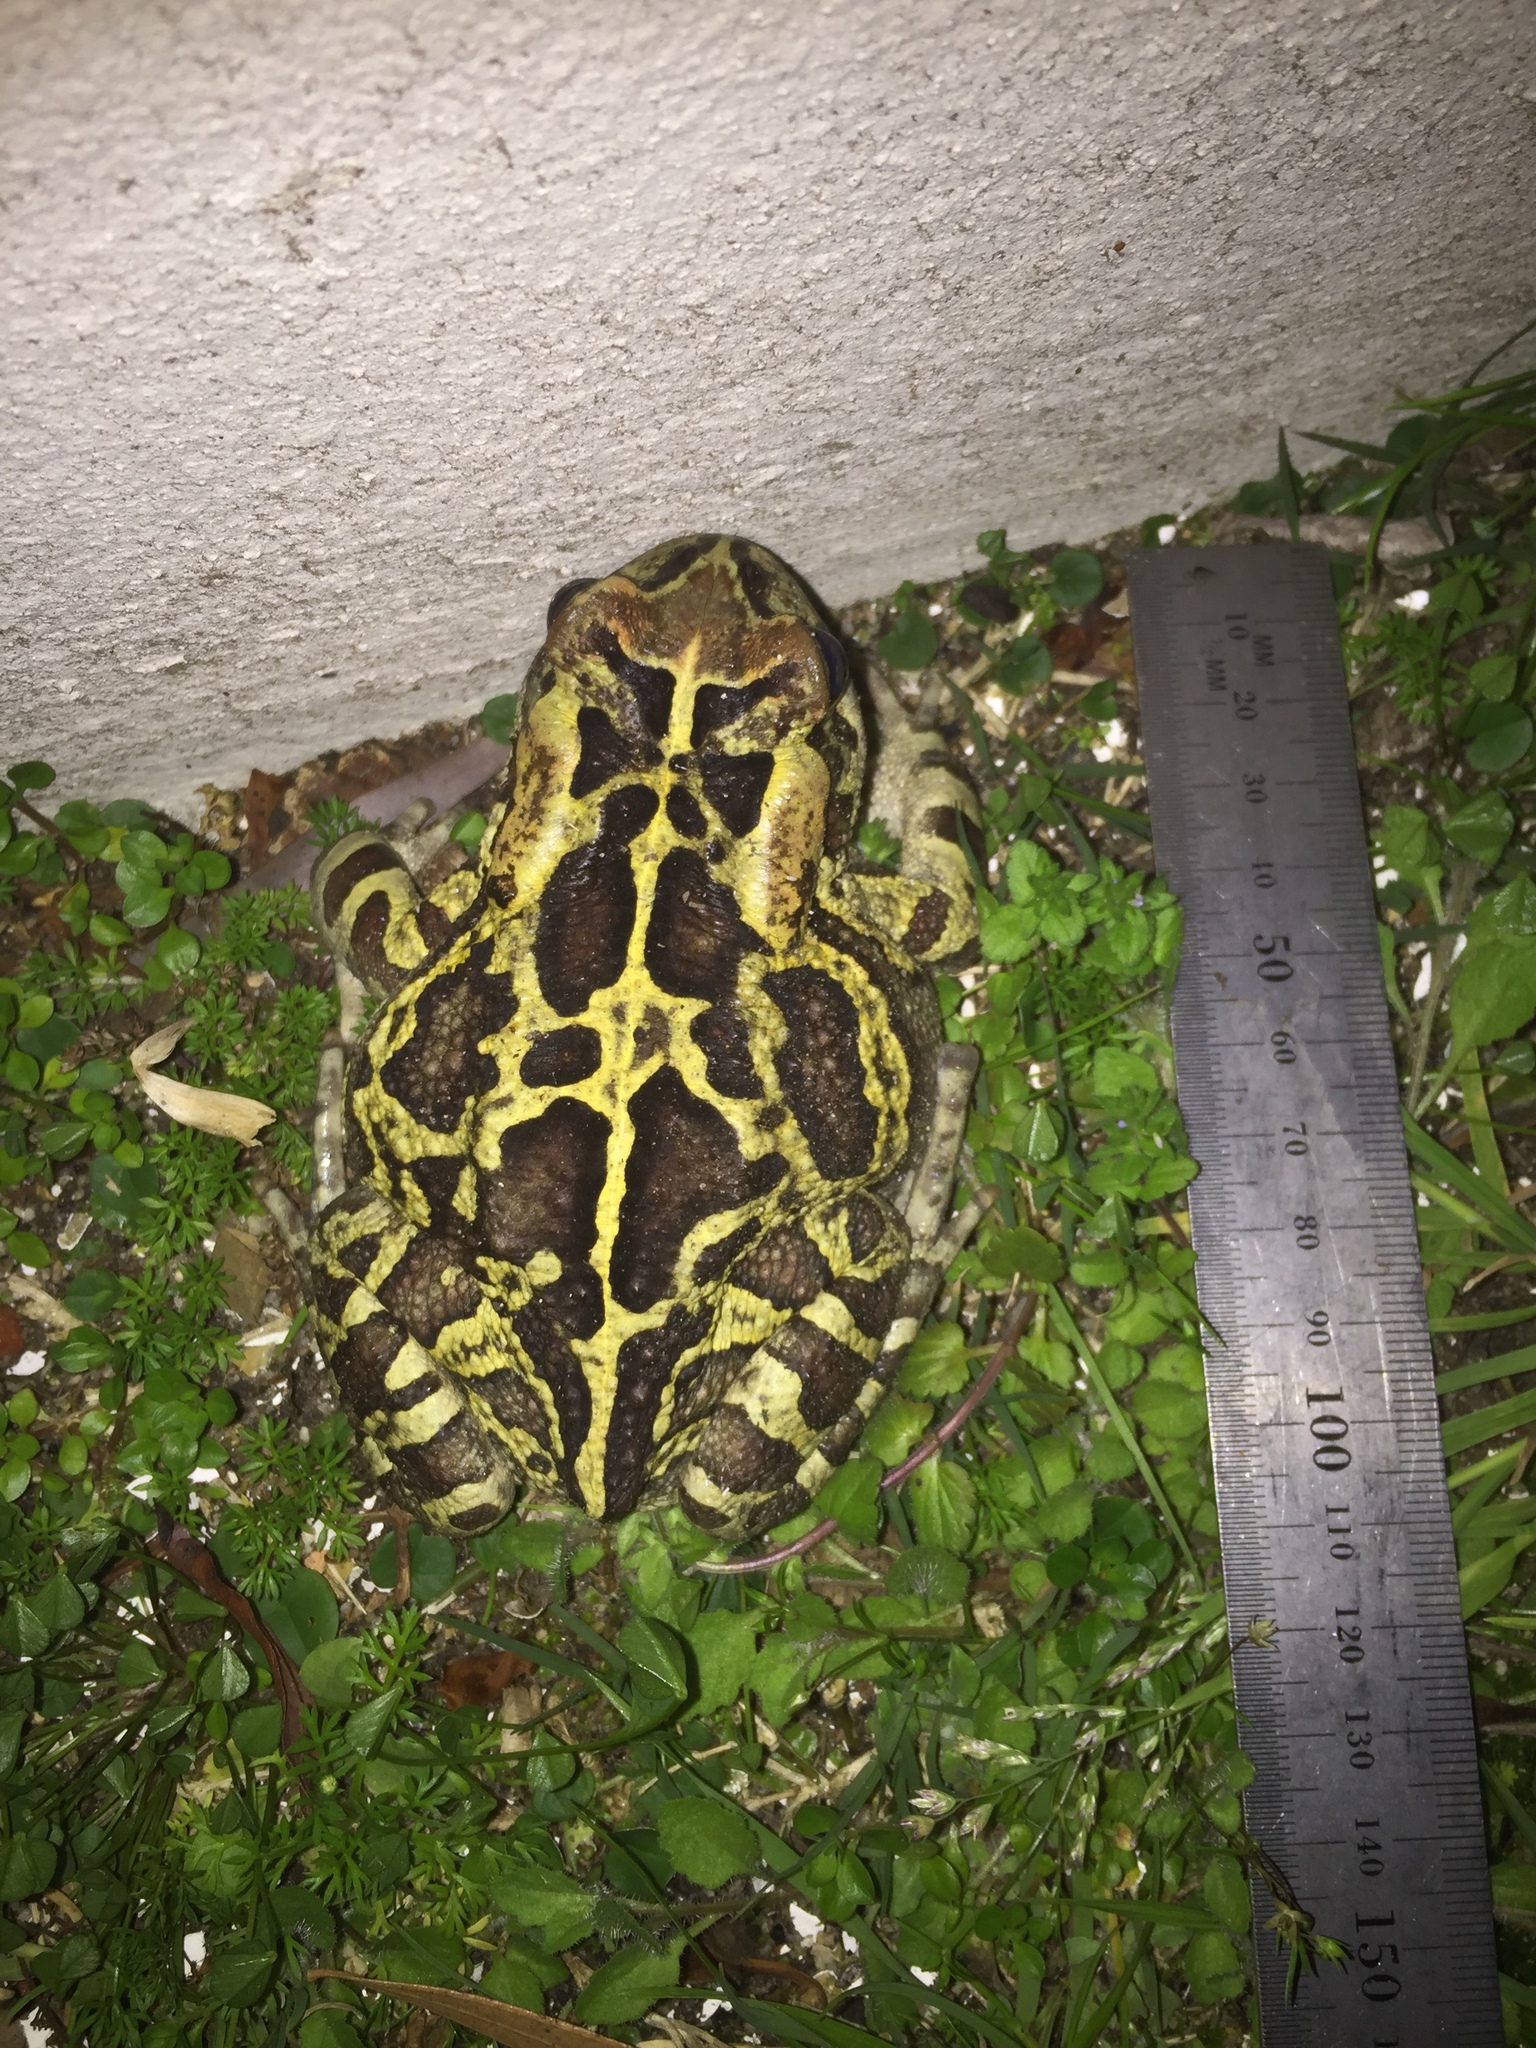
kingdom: Animalia
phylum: Chordata
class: Amphibia
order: Anura
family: Bufonidae
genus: Sclerophrys
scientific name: Sclerophrys pantherina
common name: Panther toad
